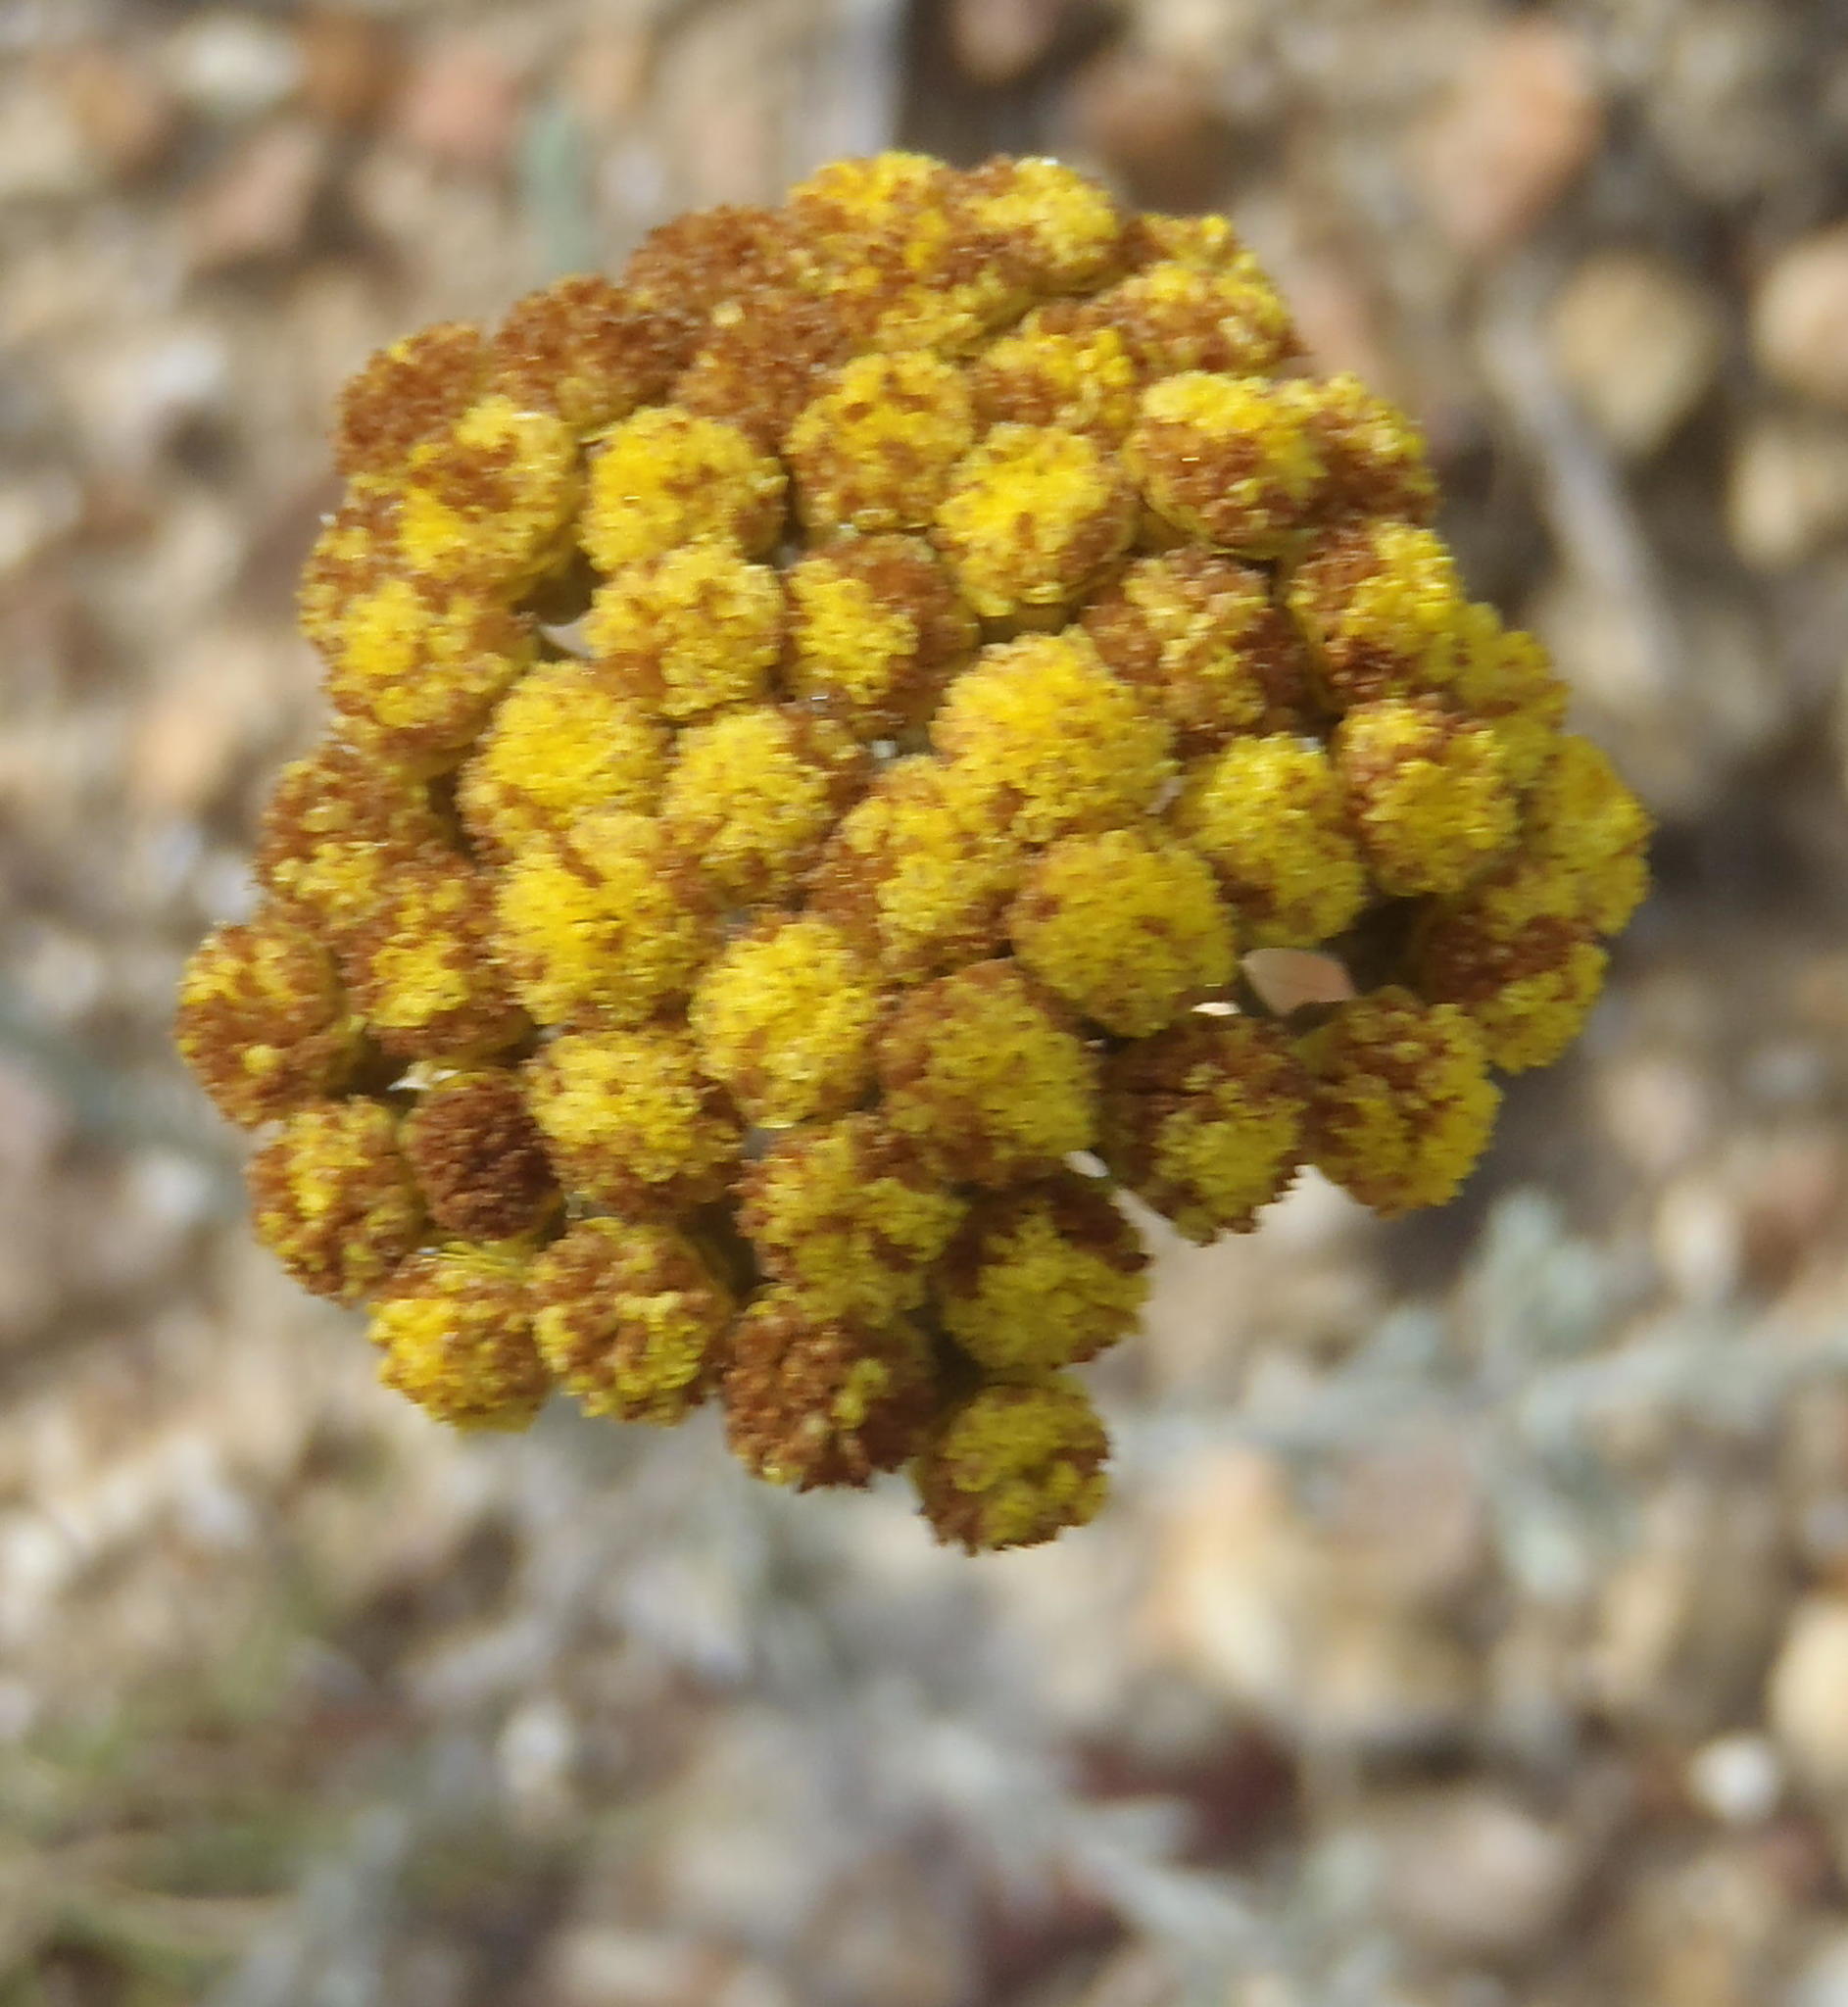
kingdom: Plantae
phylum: Tracheophyta
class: Magnoliopsida
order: Asterales
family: Asteraceae
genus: Helichrysum
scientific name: Helichrysum anomalum
